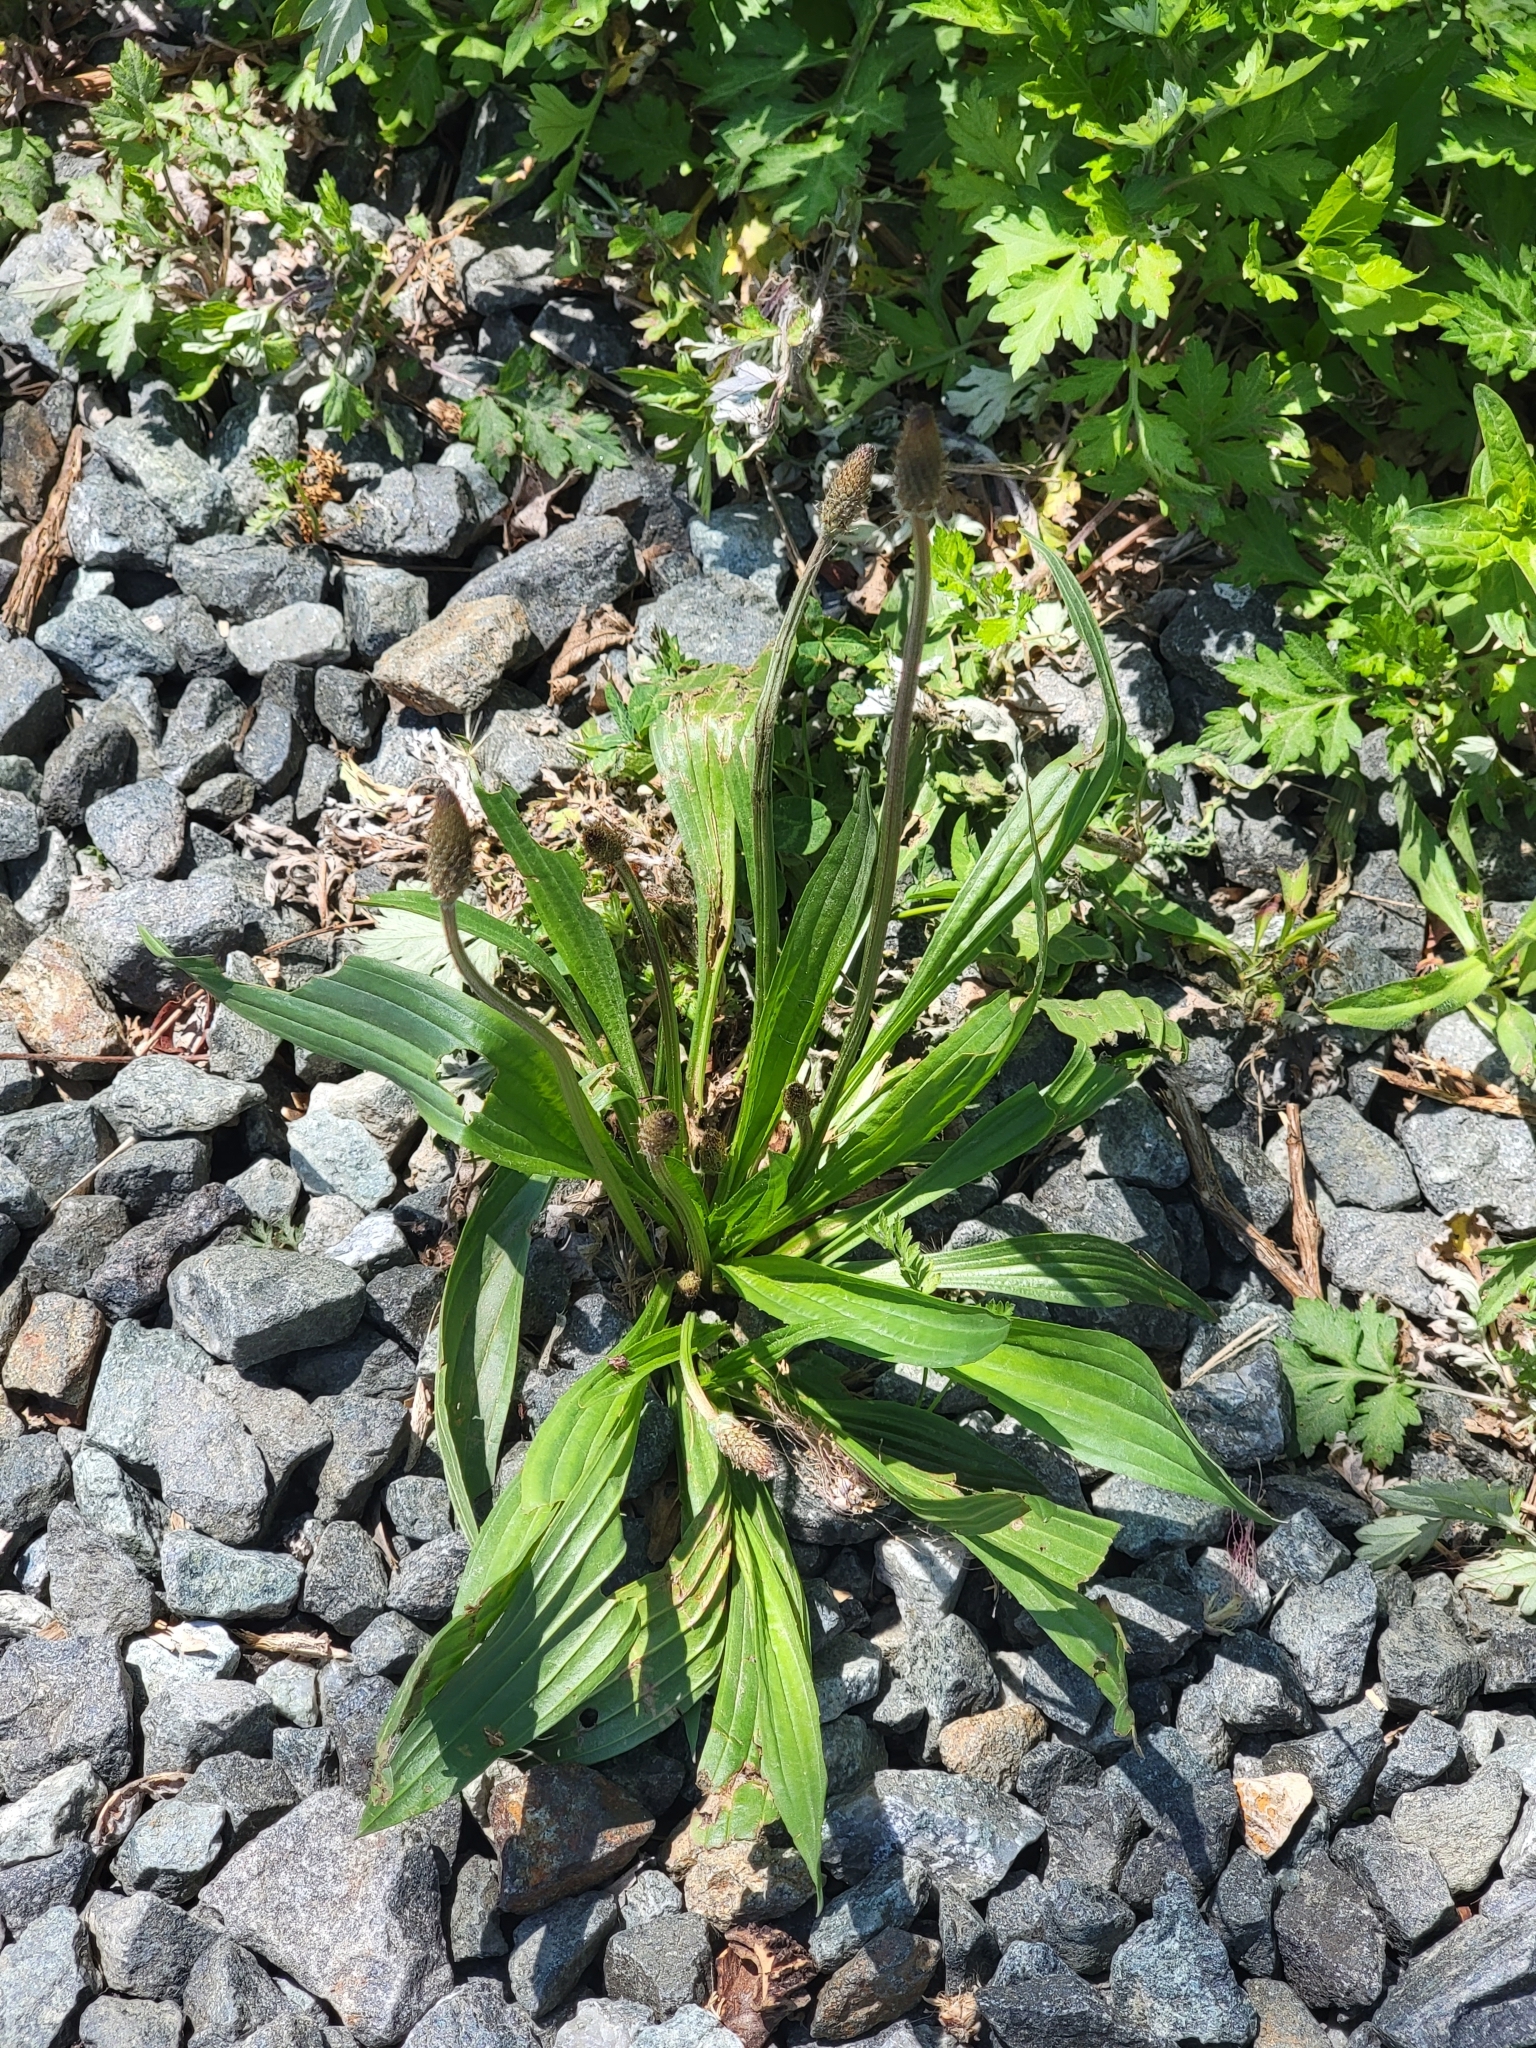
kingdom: Plantae
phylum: Tracheophyta
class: Magnoliopsida
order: Lamiales
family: Plantaginaceae
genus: Plantago
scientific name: Plantago lanceolata
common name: Ribwort plantain
